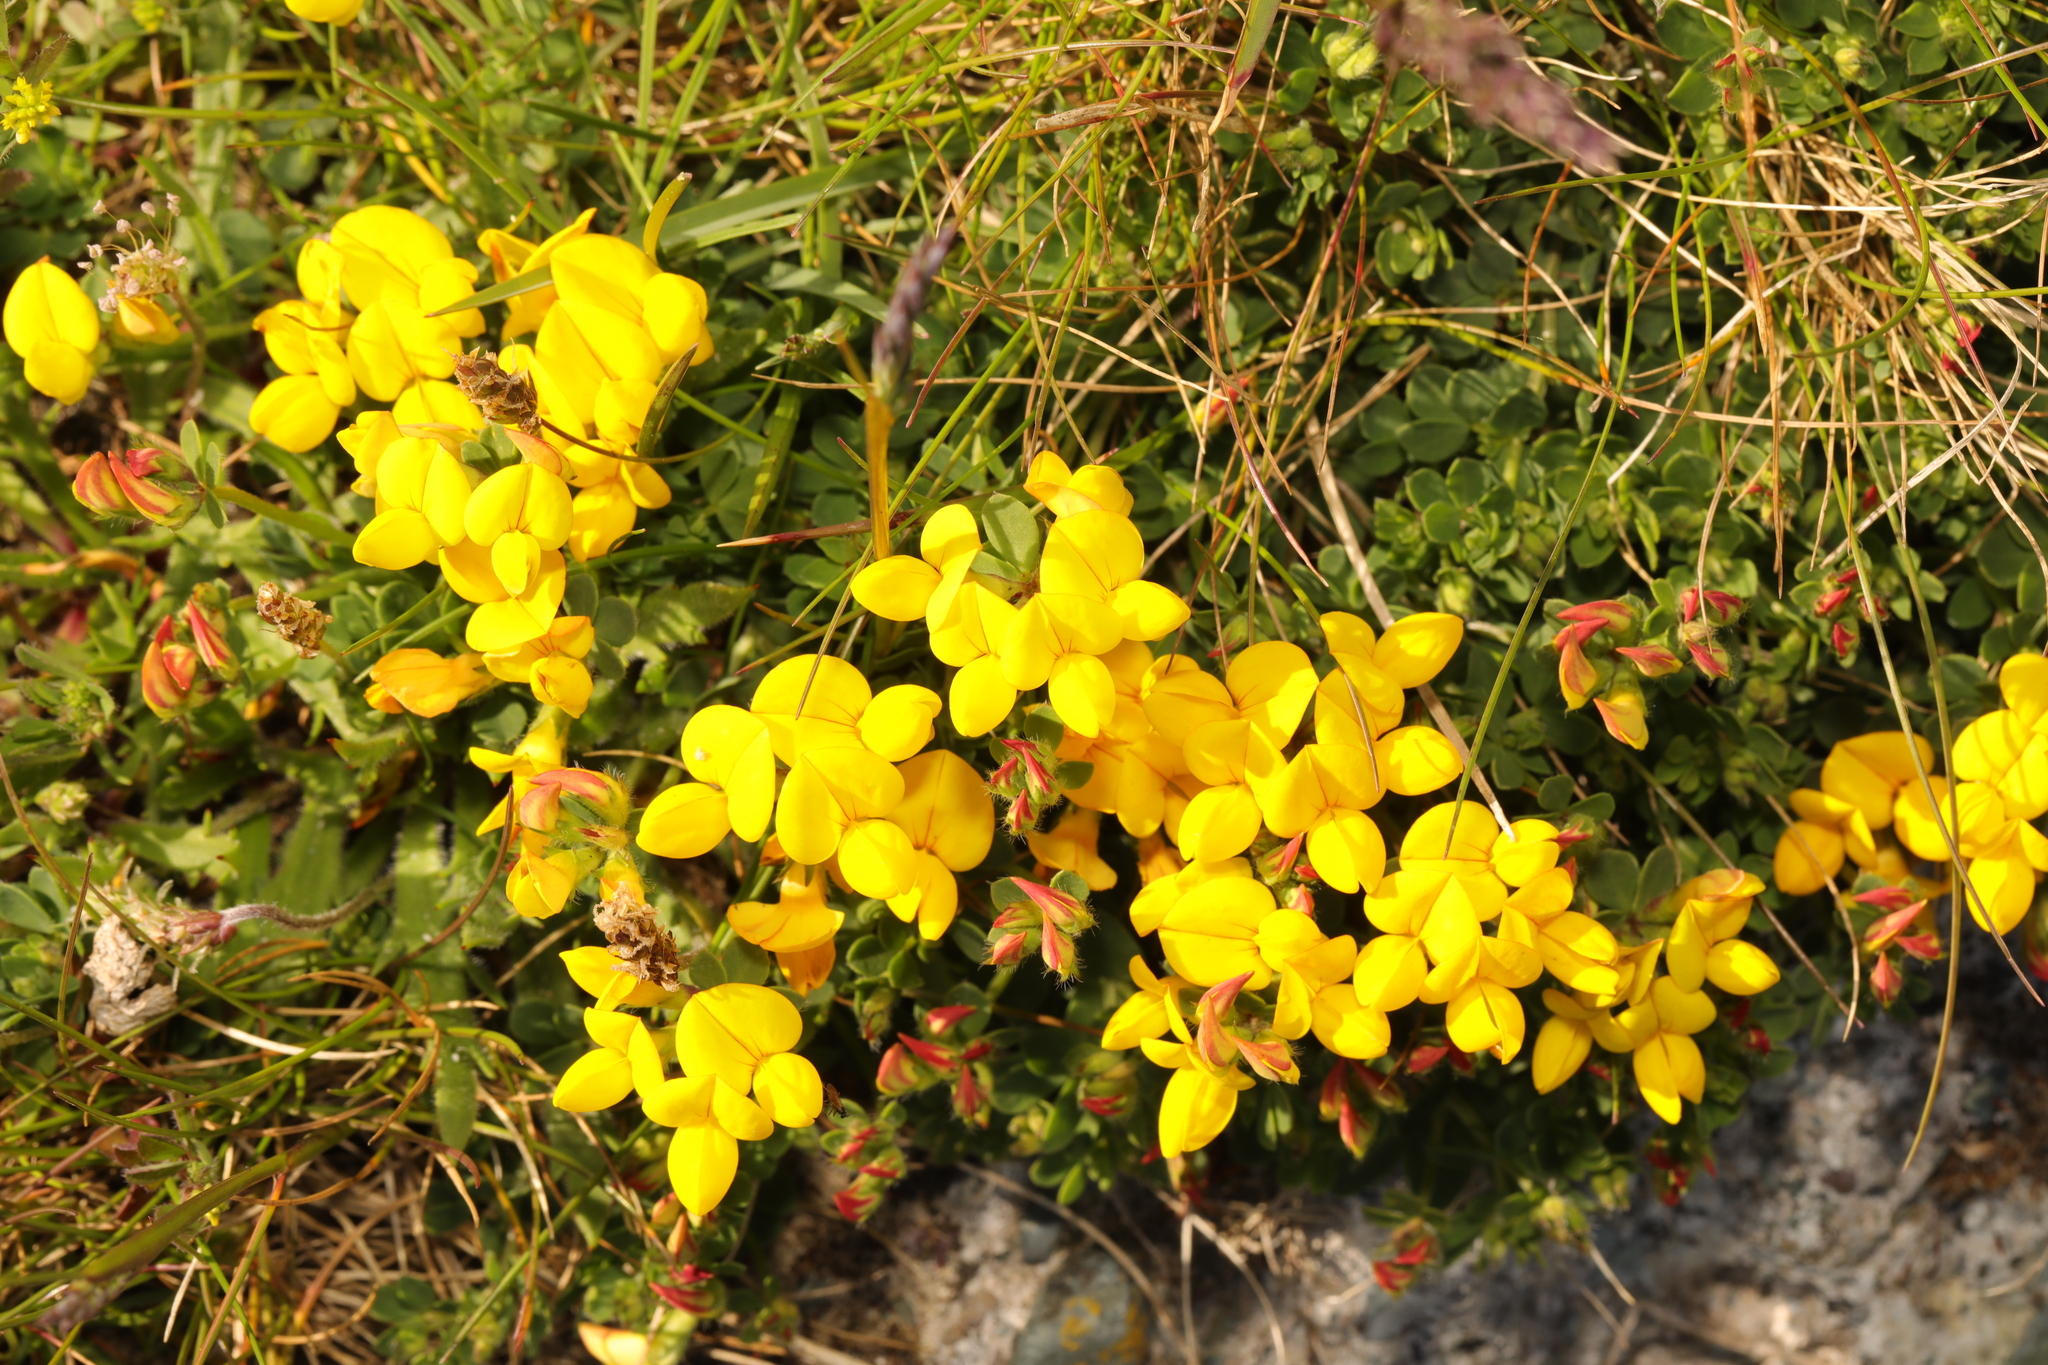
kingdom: Plantae
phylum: Tracheophyta
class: Magnoliopsida
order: Fabales
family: Fabaceae
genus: Lotus
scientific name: Lotus corniculatus
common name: Common bird's-foot-trefoil
